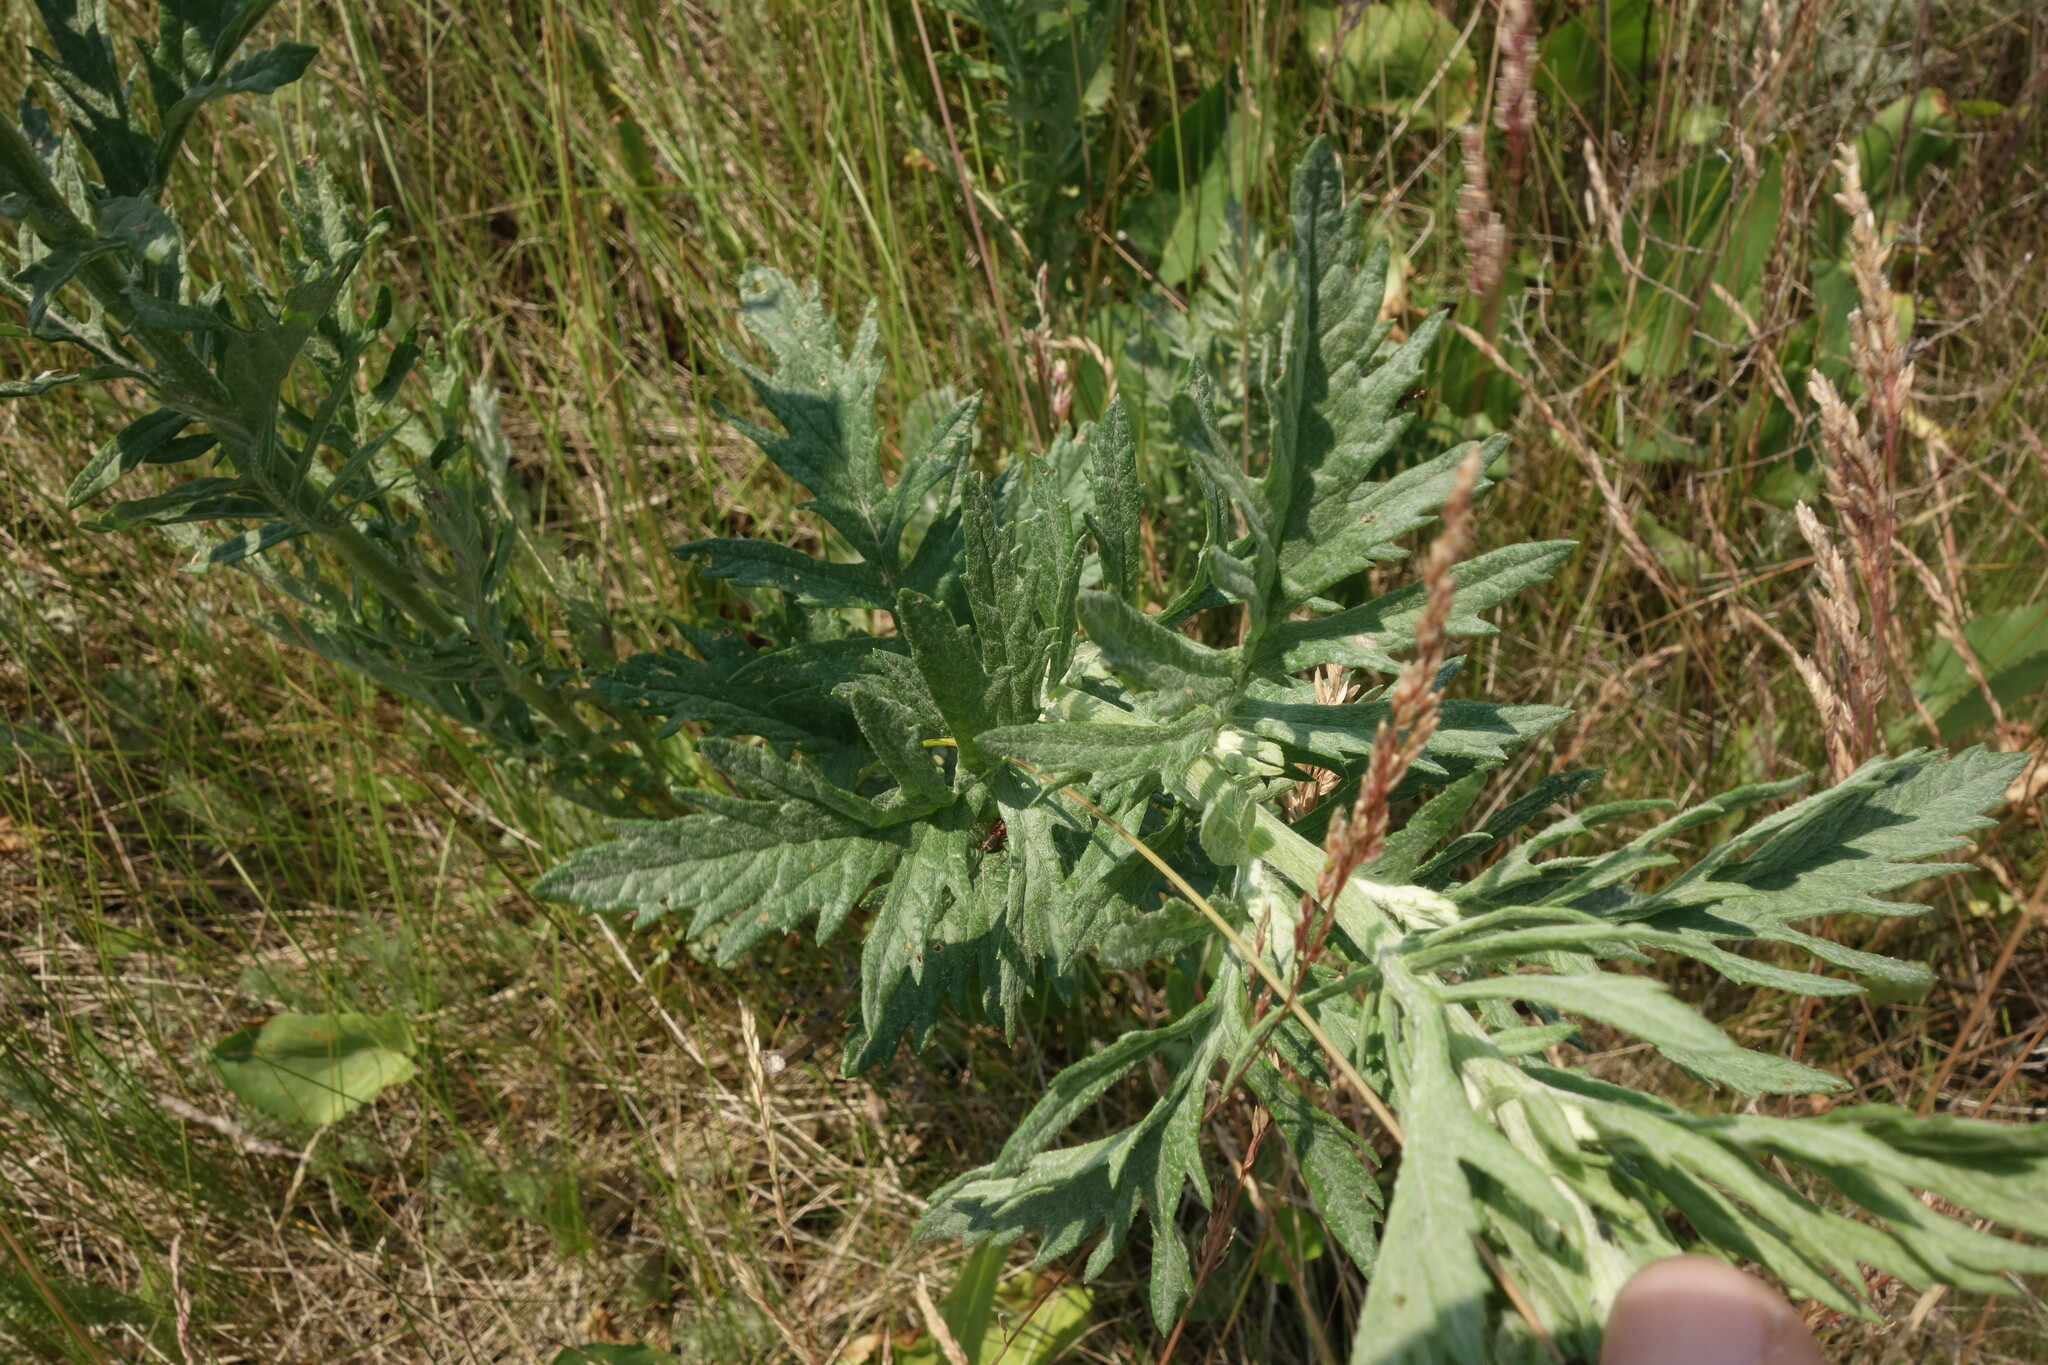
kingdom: Plantae
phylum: Tracheophyta
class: Magnoliopsida
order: Asterales
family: Asteraceae
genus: Jacobaea
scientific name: Jacobaea erucifolia
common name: Hoary ragwort
